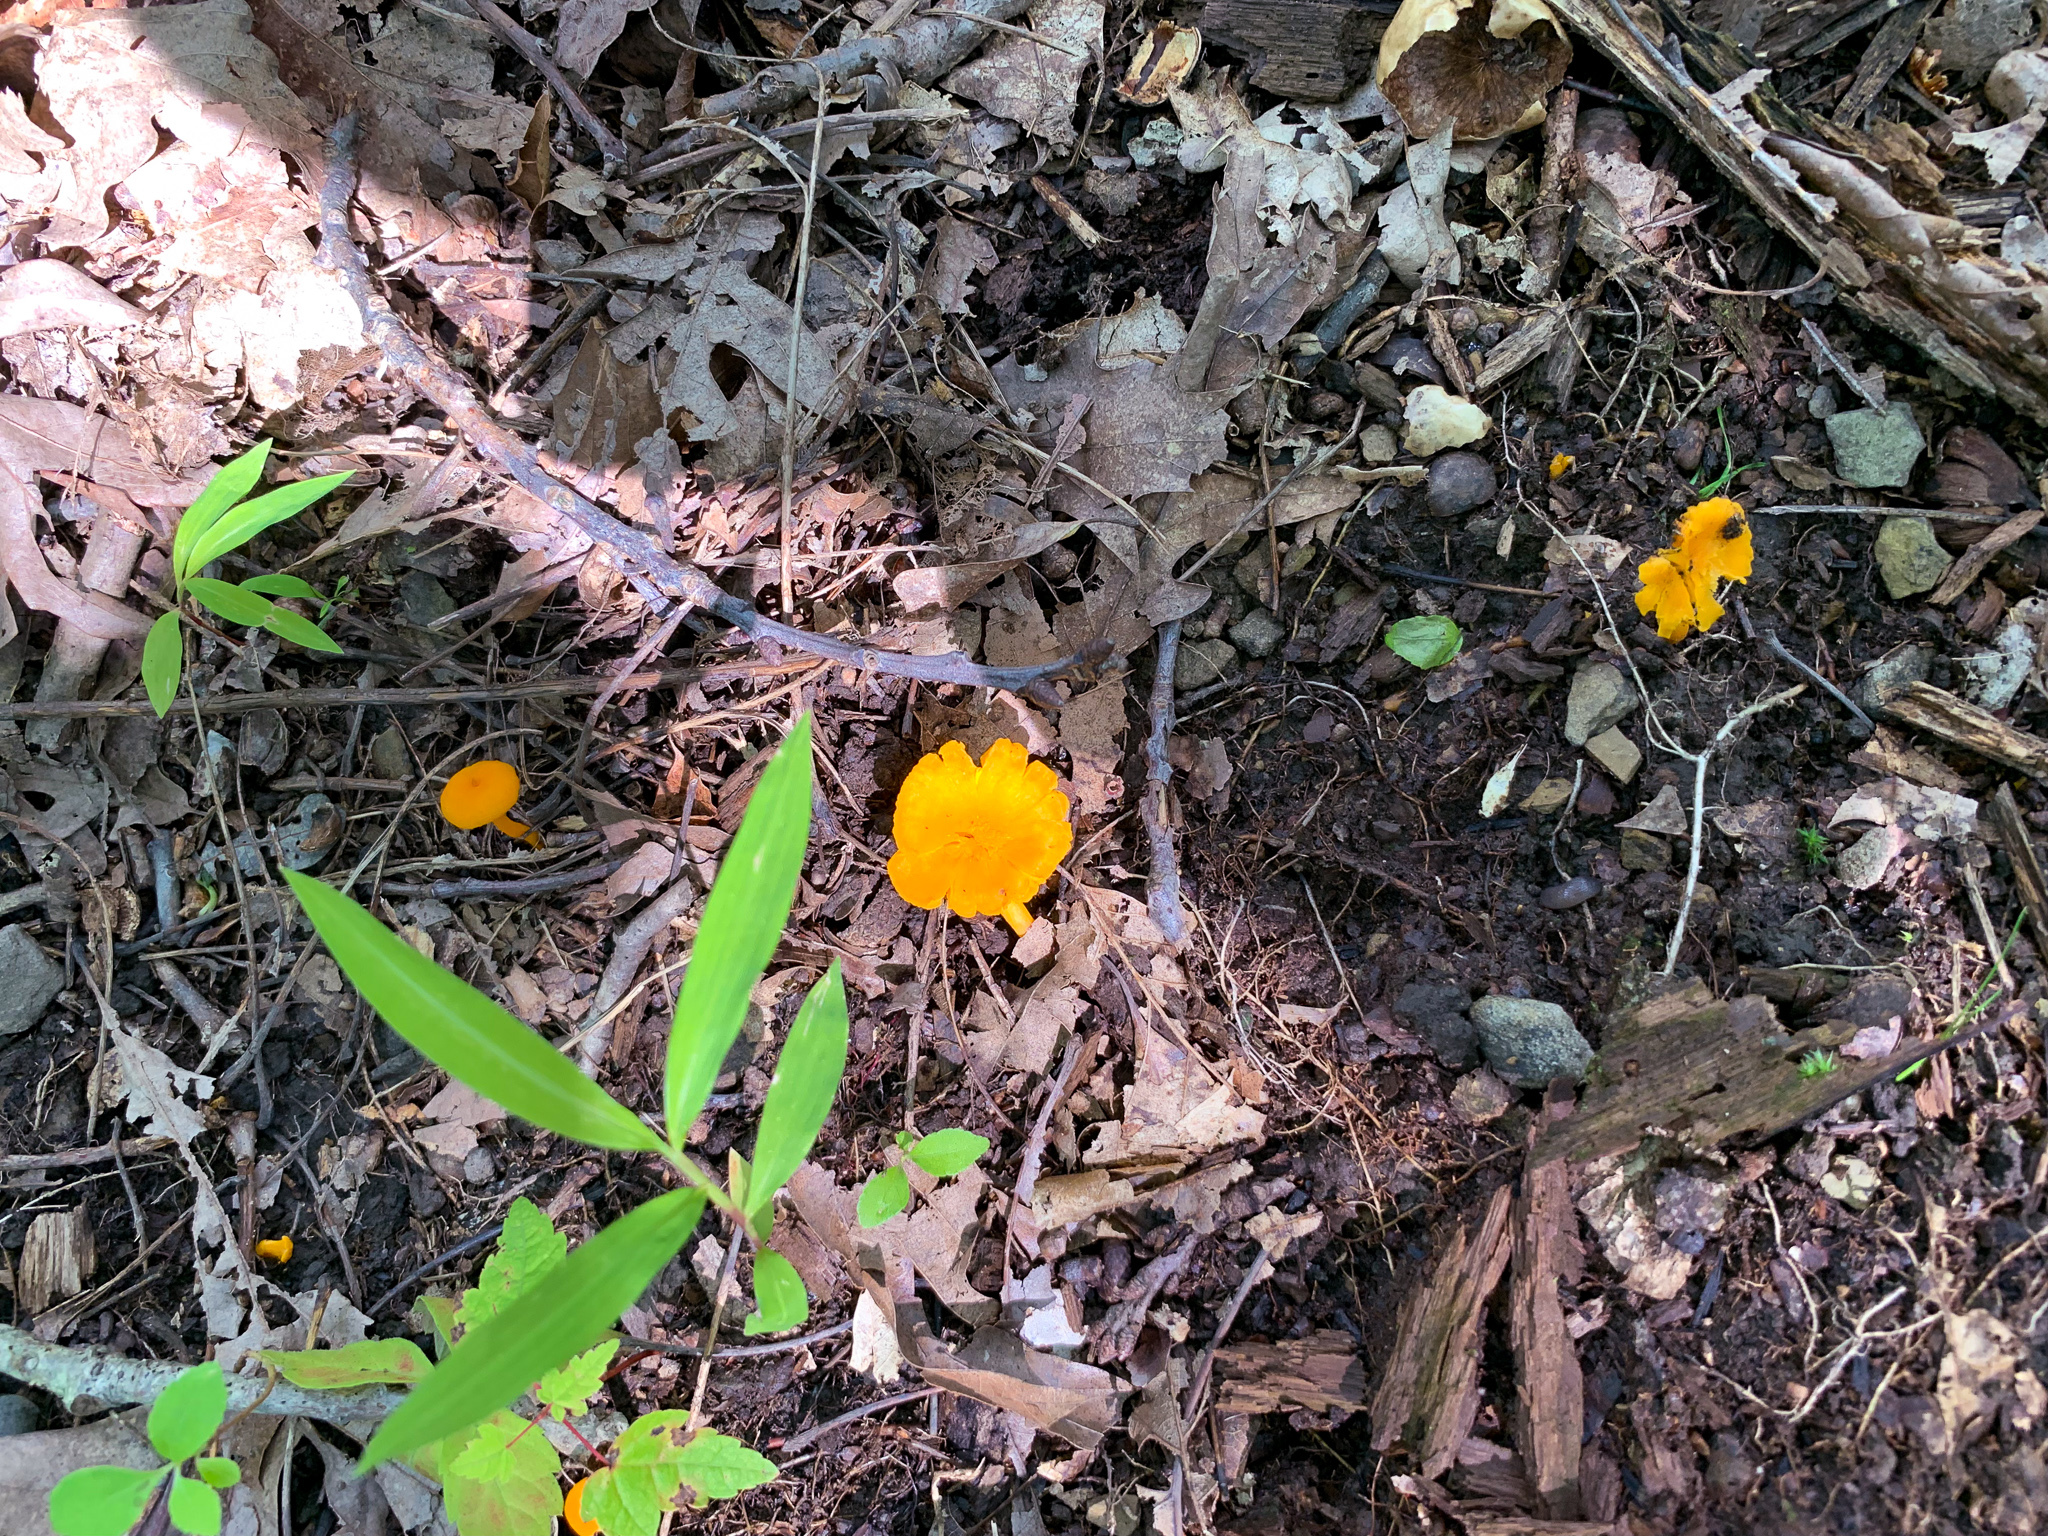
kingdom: Fungi
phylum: Basidiomycota
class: Agaricomycetes
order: Cantharellales
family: Hydnaceae
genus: Cantharellus
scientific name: Cantharellus minor
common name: Small chanterelle
